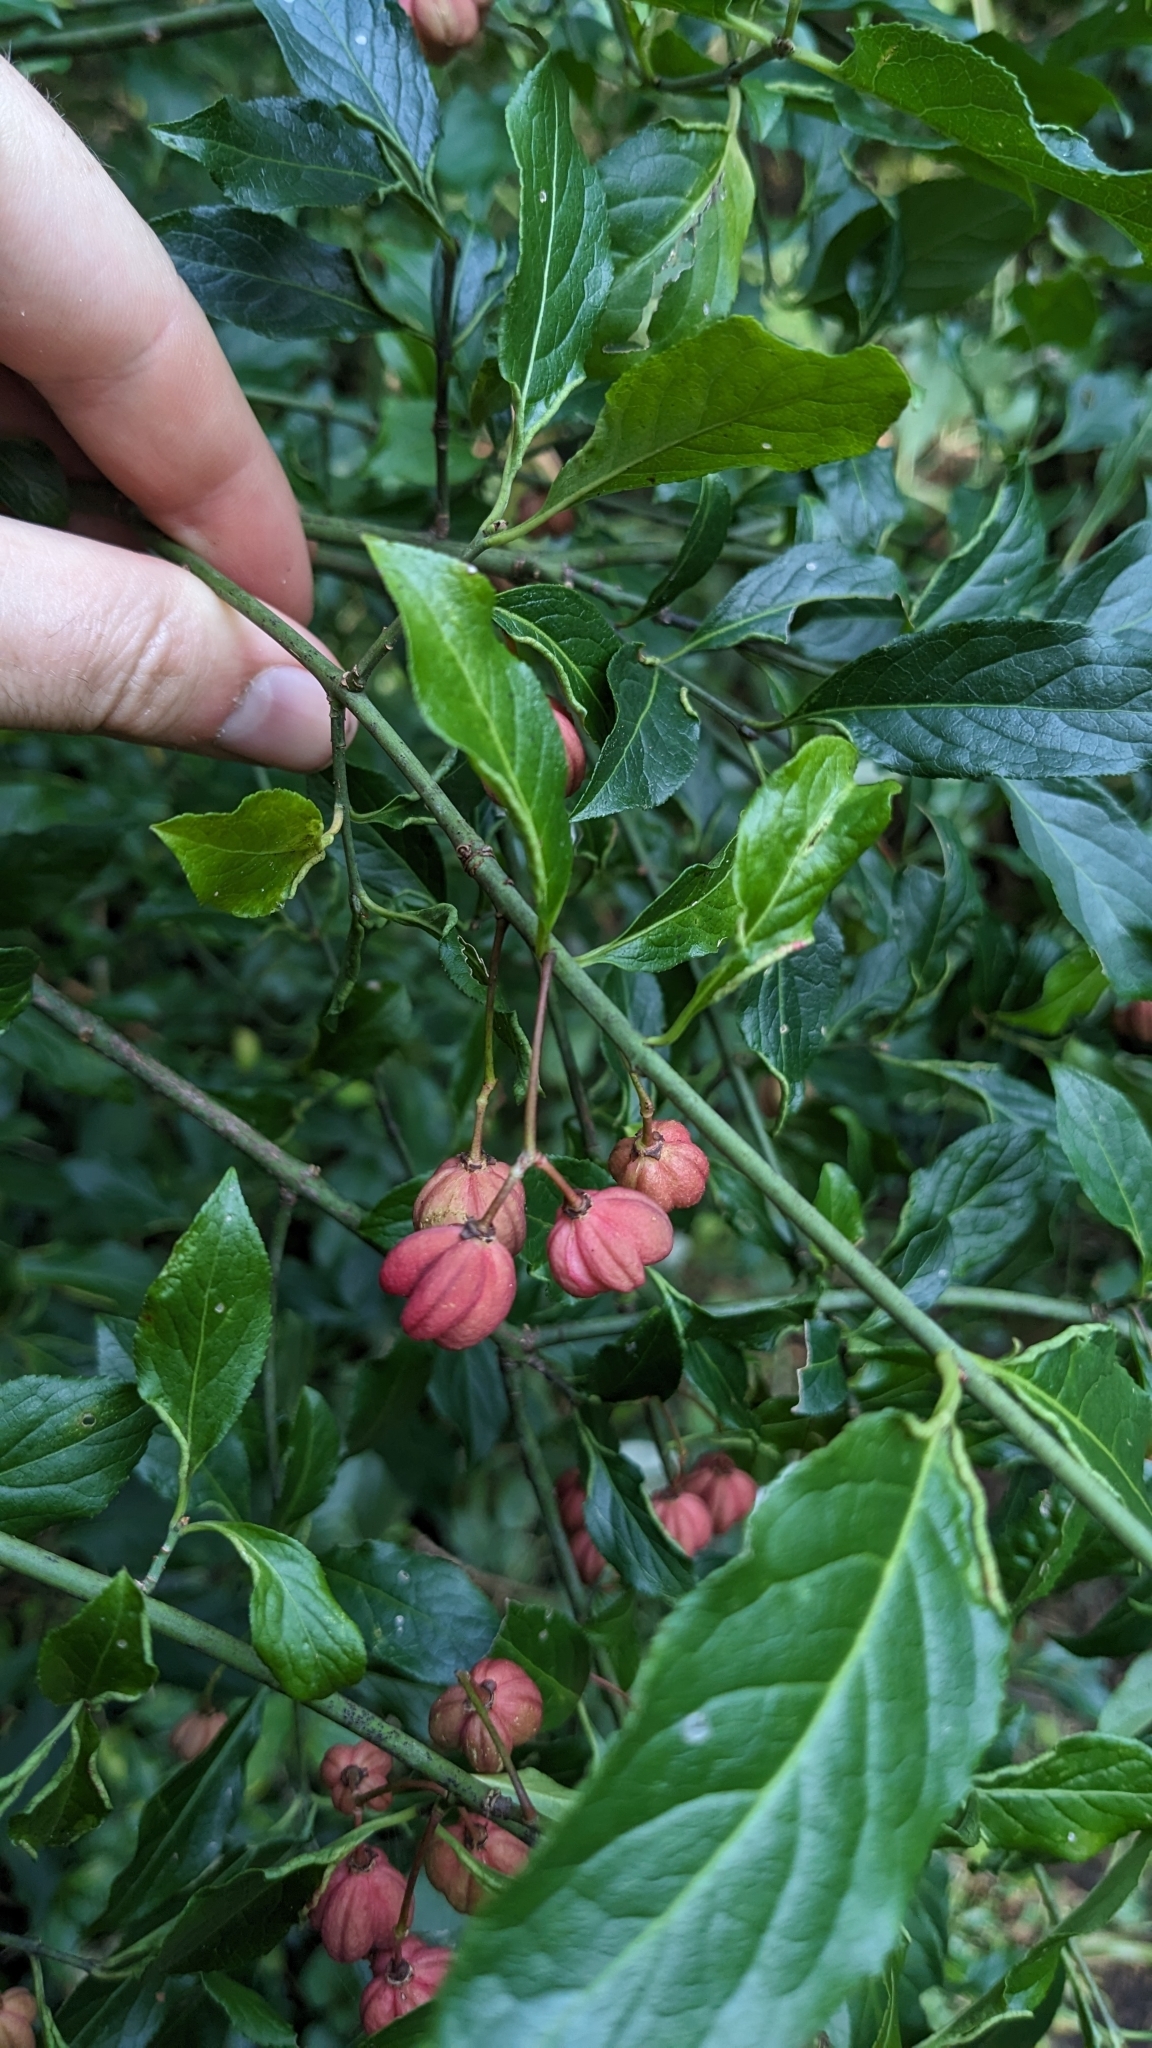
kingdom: Plantae
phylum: Tracheophyta
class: Magnoliopsida
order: Celastrales
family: Celastraceae
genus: Euonymus
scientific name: Euonymus europaeus
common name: Spindle
